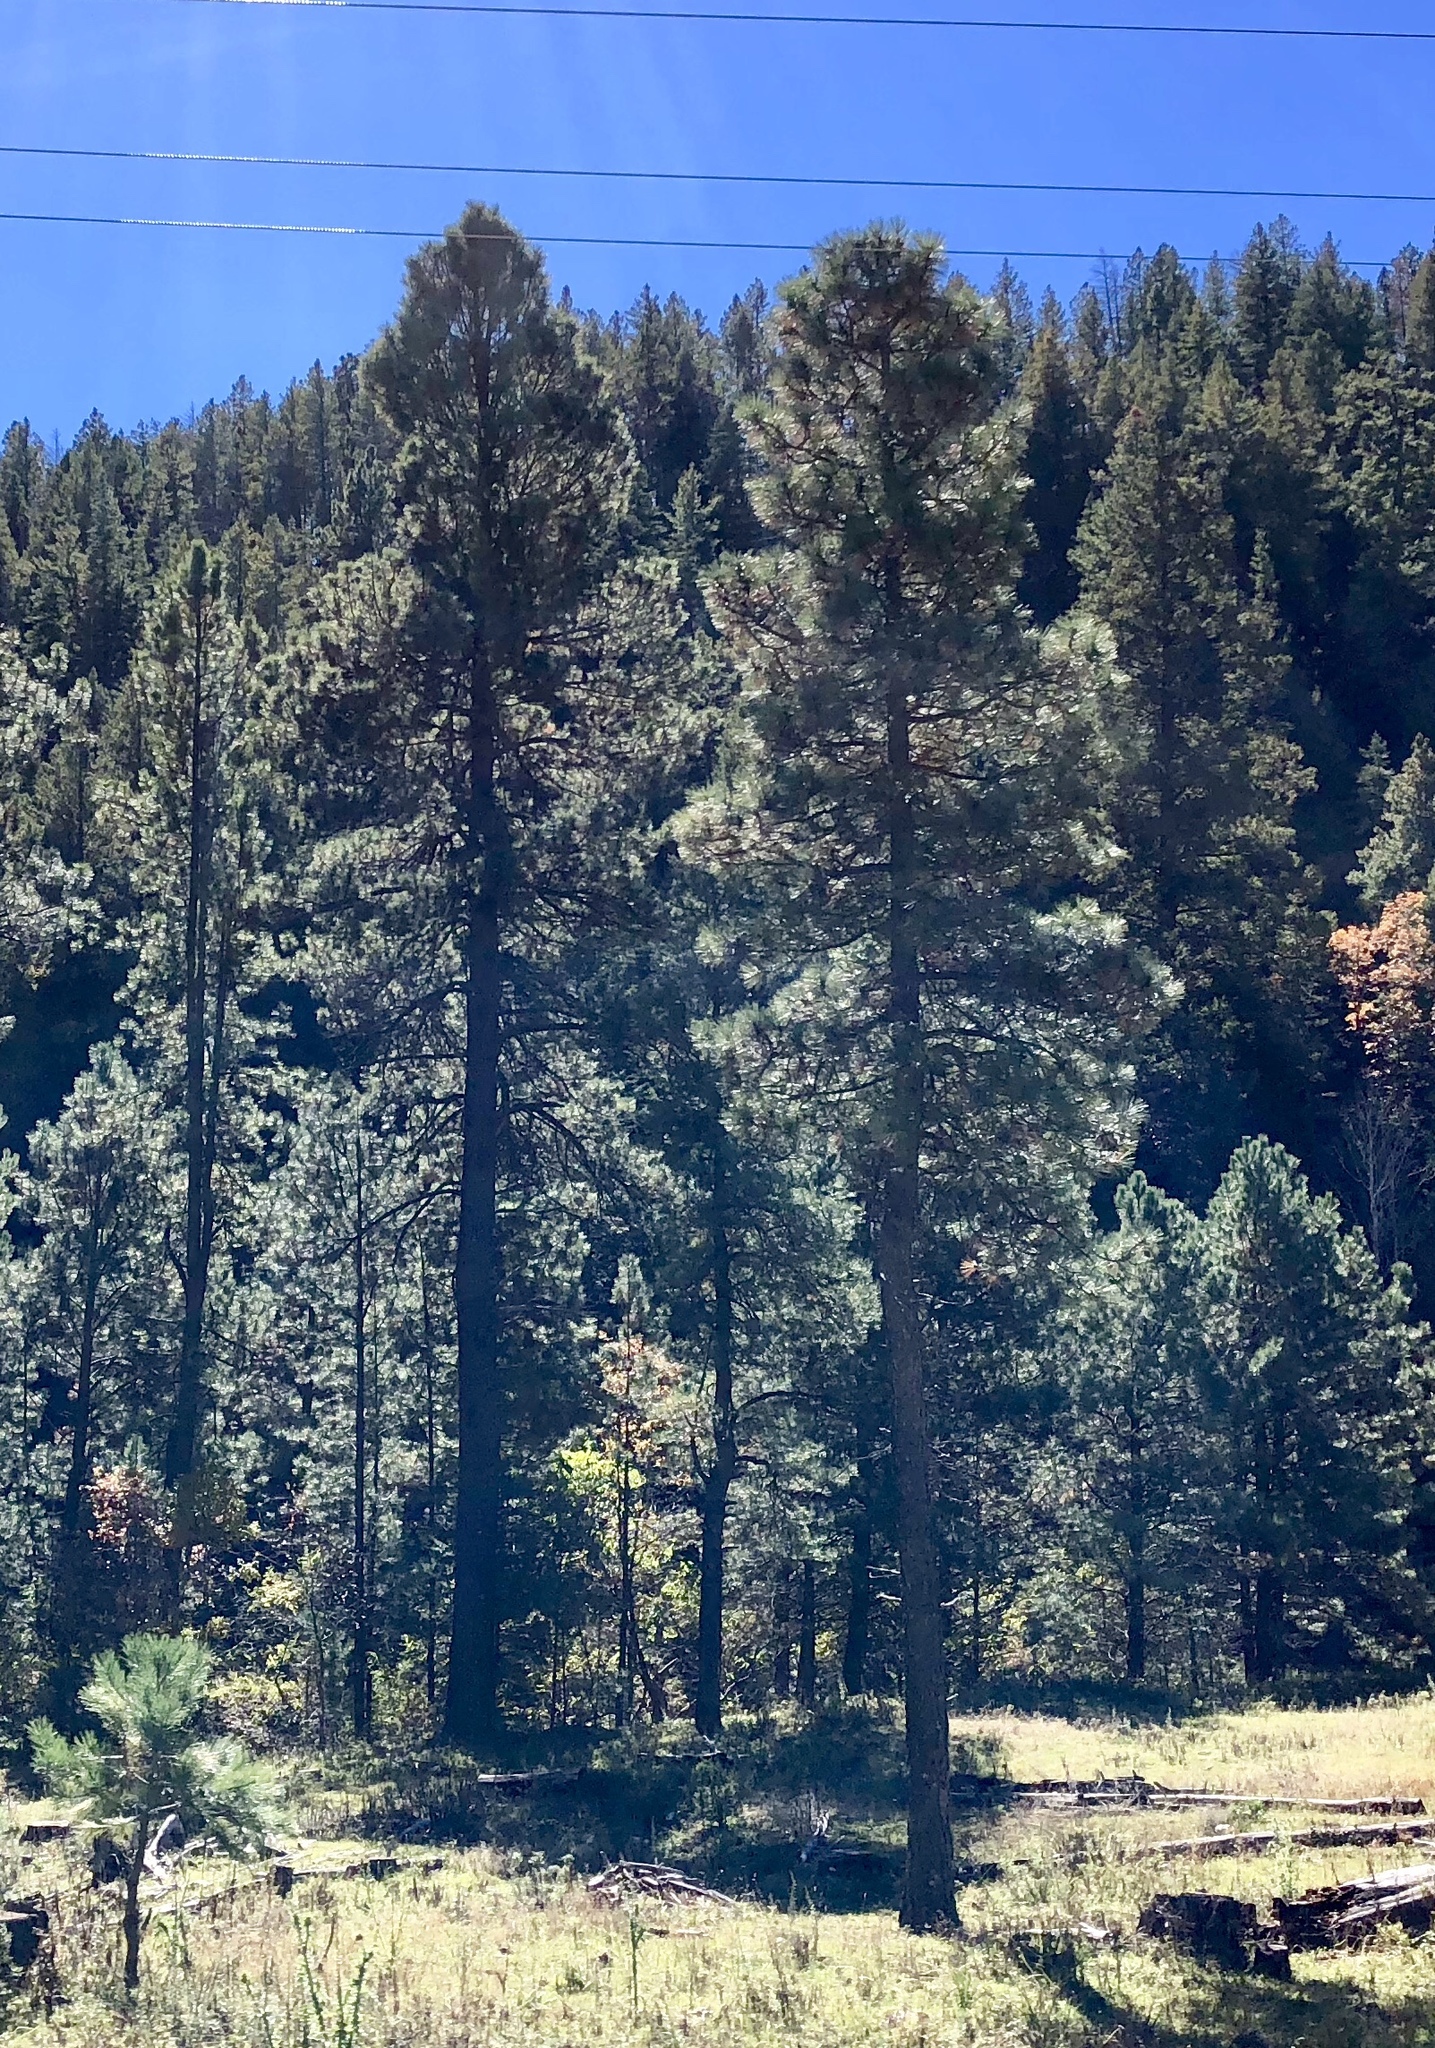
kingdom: Plantae
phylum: Tracheophyta
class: Pinopsida
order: Pinales
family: Pinaceae
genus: Pinus
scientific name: Pinus ponderosa
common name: Western yellow-pine
